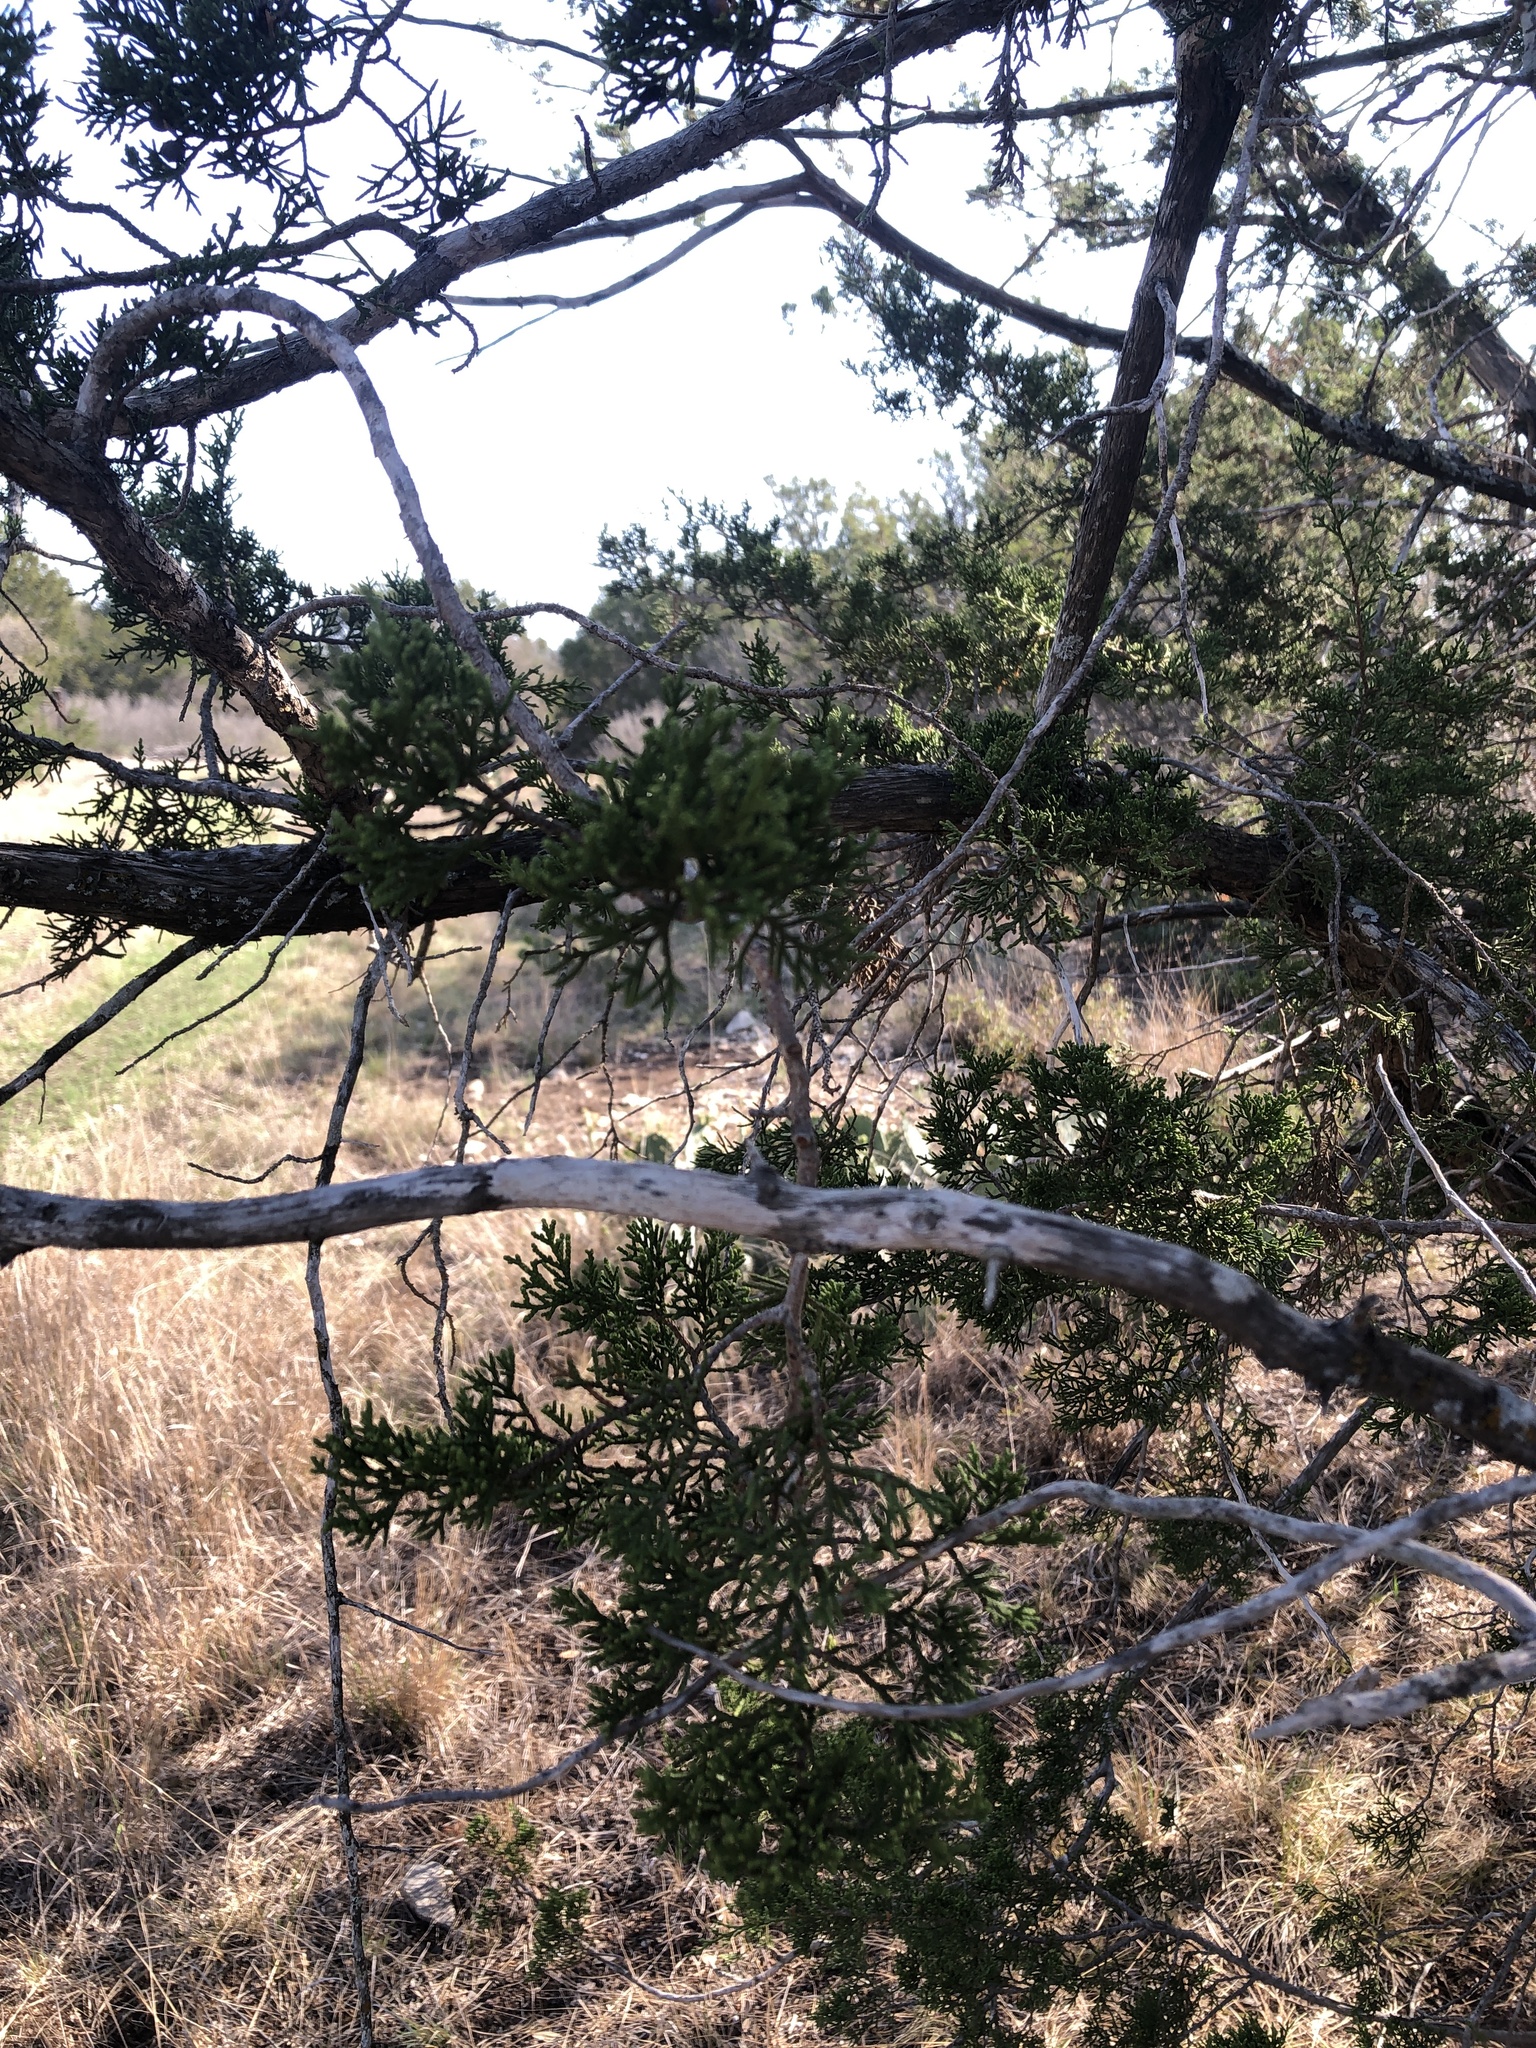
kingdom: Fungi
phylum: Ascomycota
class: Lecanoromycetes
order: Ostropales
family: Stictidaceae
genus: Robergea
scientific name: Robergea
